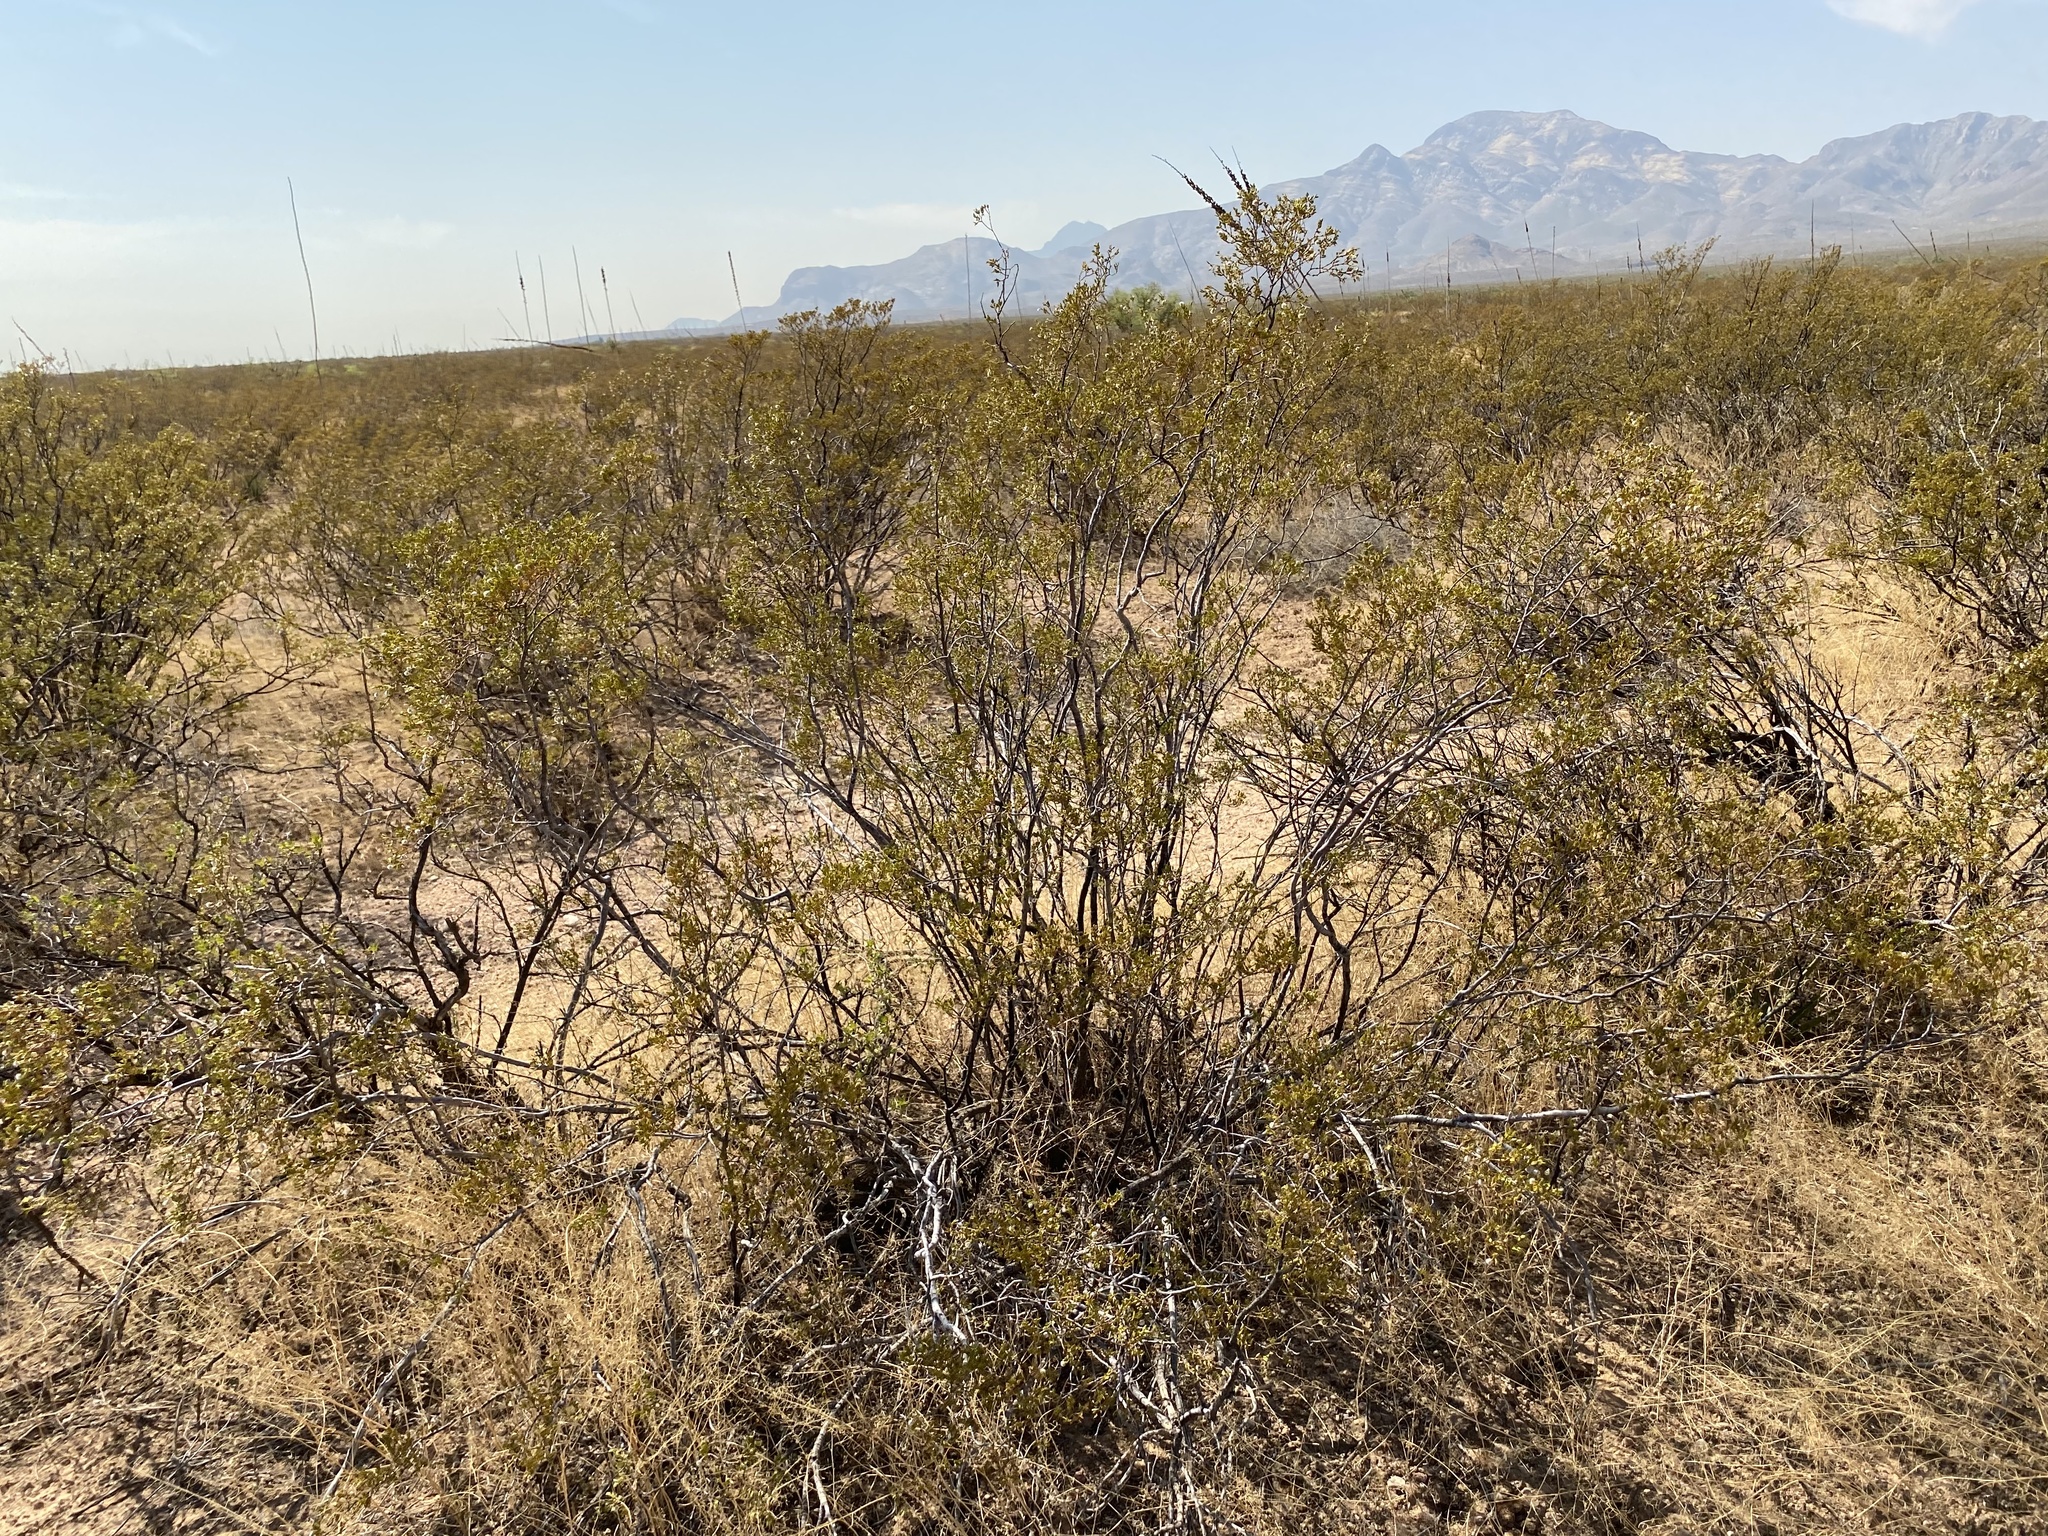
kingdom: Plantae
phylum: Tracheophyta
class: Magnoliopsida
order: Zygophyllales
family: Zygophyllaceae
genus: Larrea
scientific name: Larrea tridentata
